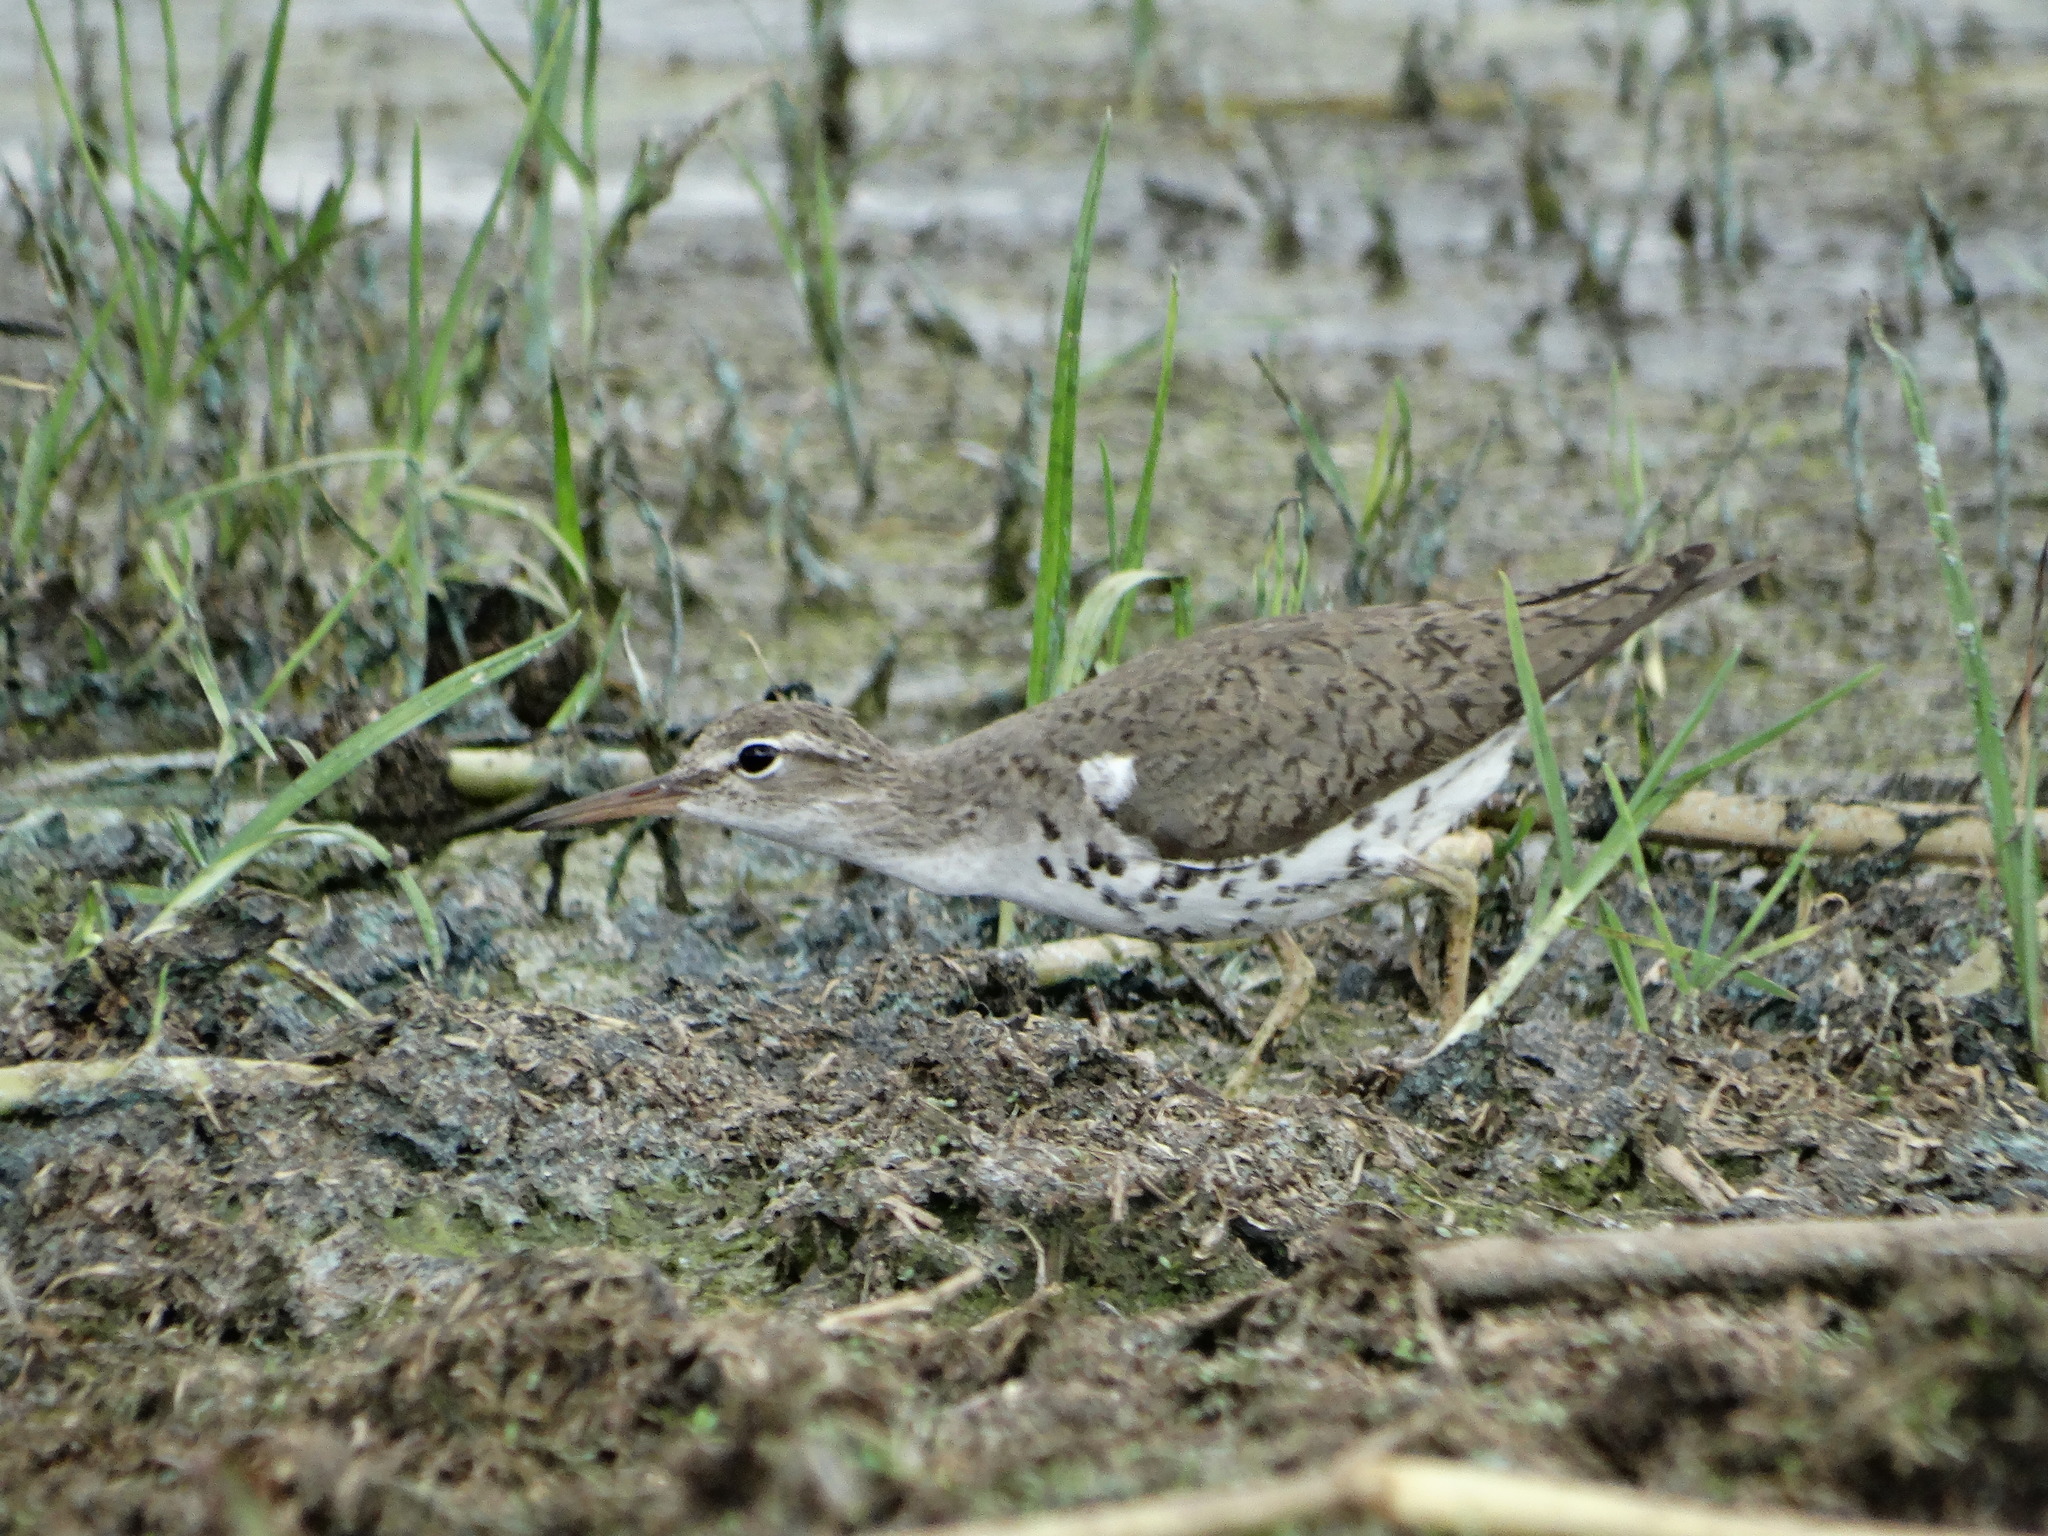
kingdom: Animalia
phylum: Chordata
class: Aves
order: Charadriiformes
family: Scolopacidae
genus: Actitis
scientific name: Actitis macularius
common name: Spotted sandpiper
